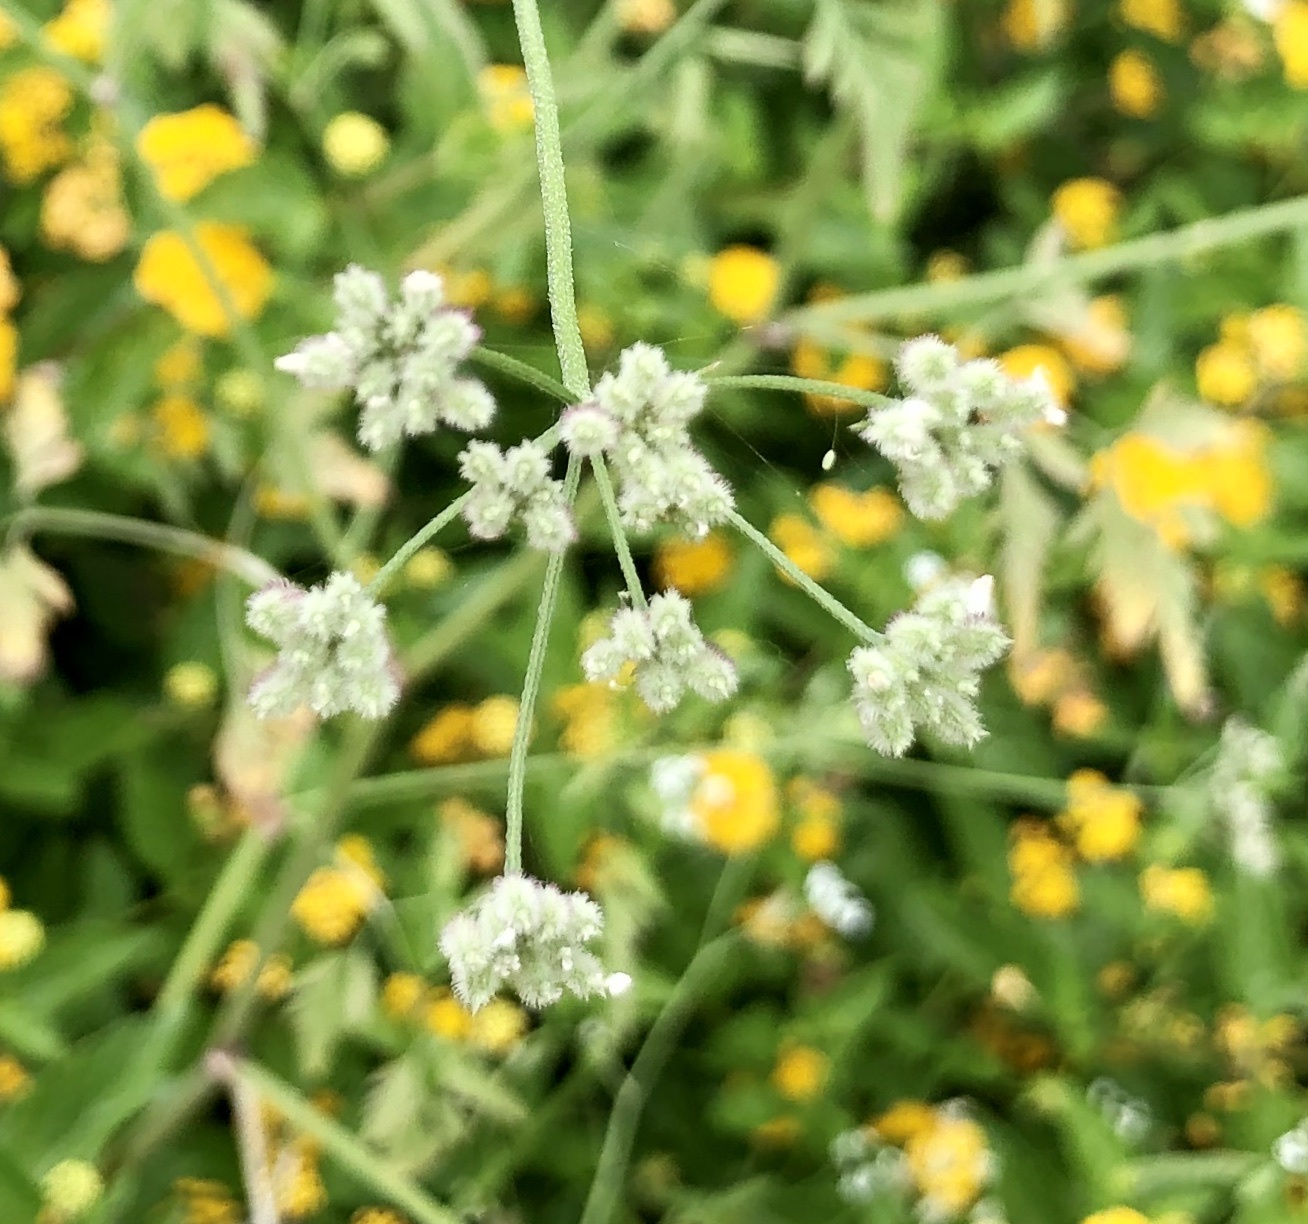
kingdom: Plantae
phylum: Tracheophyta
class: Magnoliopsida
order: Apiales
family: Apiaceae
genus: Torilis
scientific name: Torilis arvensis
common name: Spreading hedge-parsley
